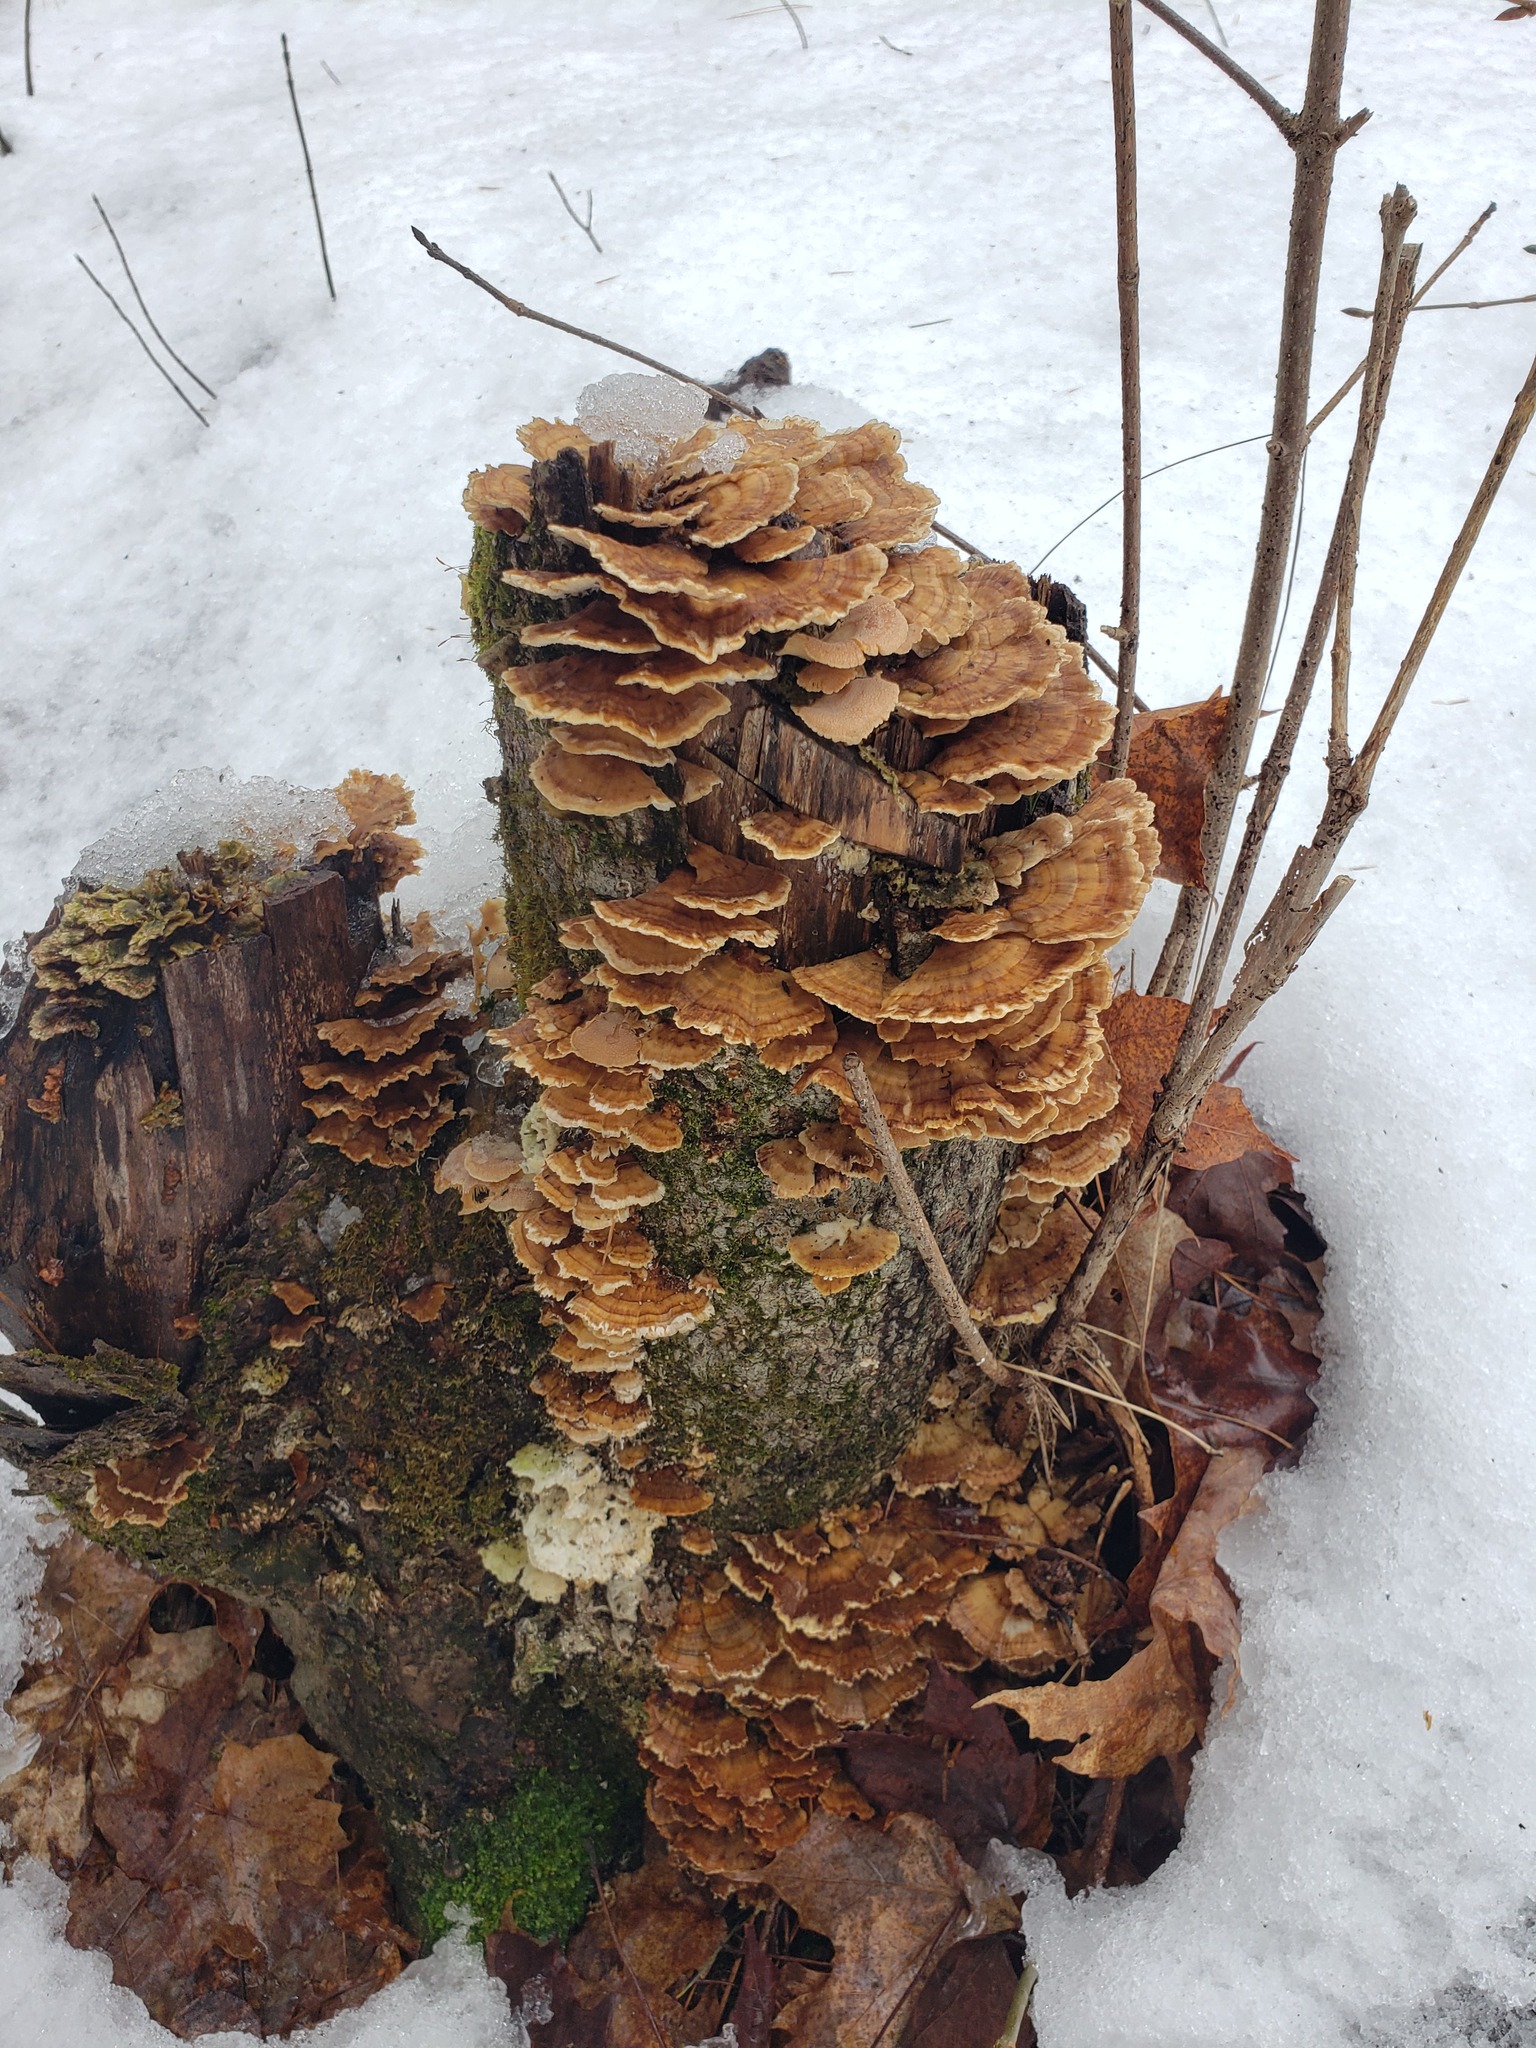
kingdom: Fungi
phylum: Basidiomycota
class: Agaricomycetes
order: Polyporales
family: Polyporaceae
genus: Trametes
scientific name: Trametes ochracea
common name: Ochre bracket
